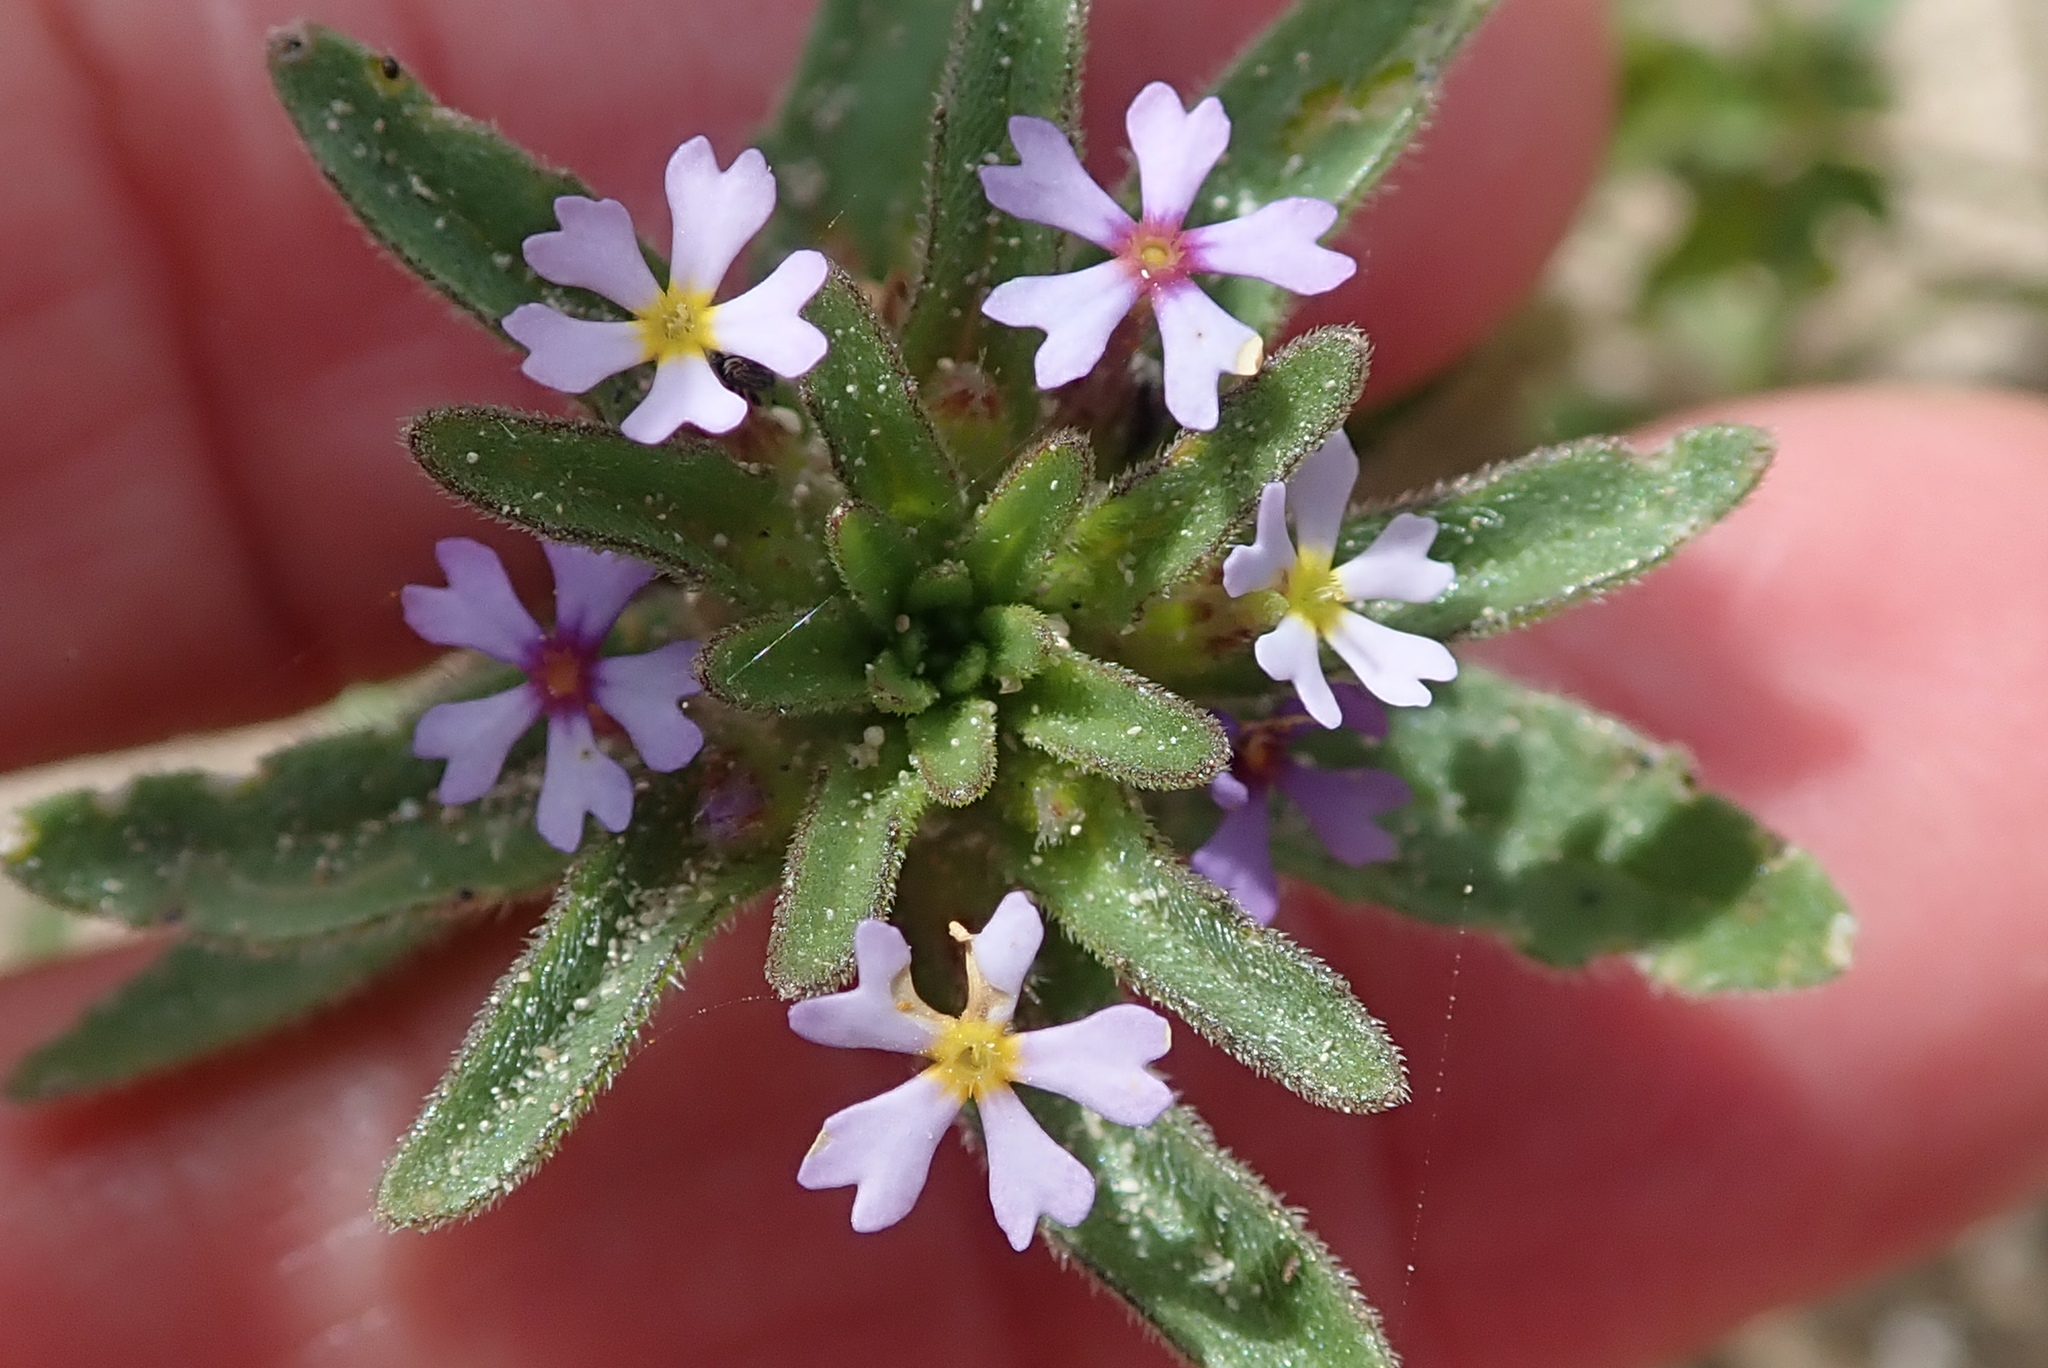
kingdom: Plantae
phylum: Tracheophyta
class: Magnoliopsida
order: Lamiales
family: Scrophulariaceae
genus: Zaluzianskya
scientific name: Zaluzianskya parviflora
